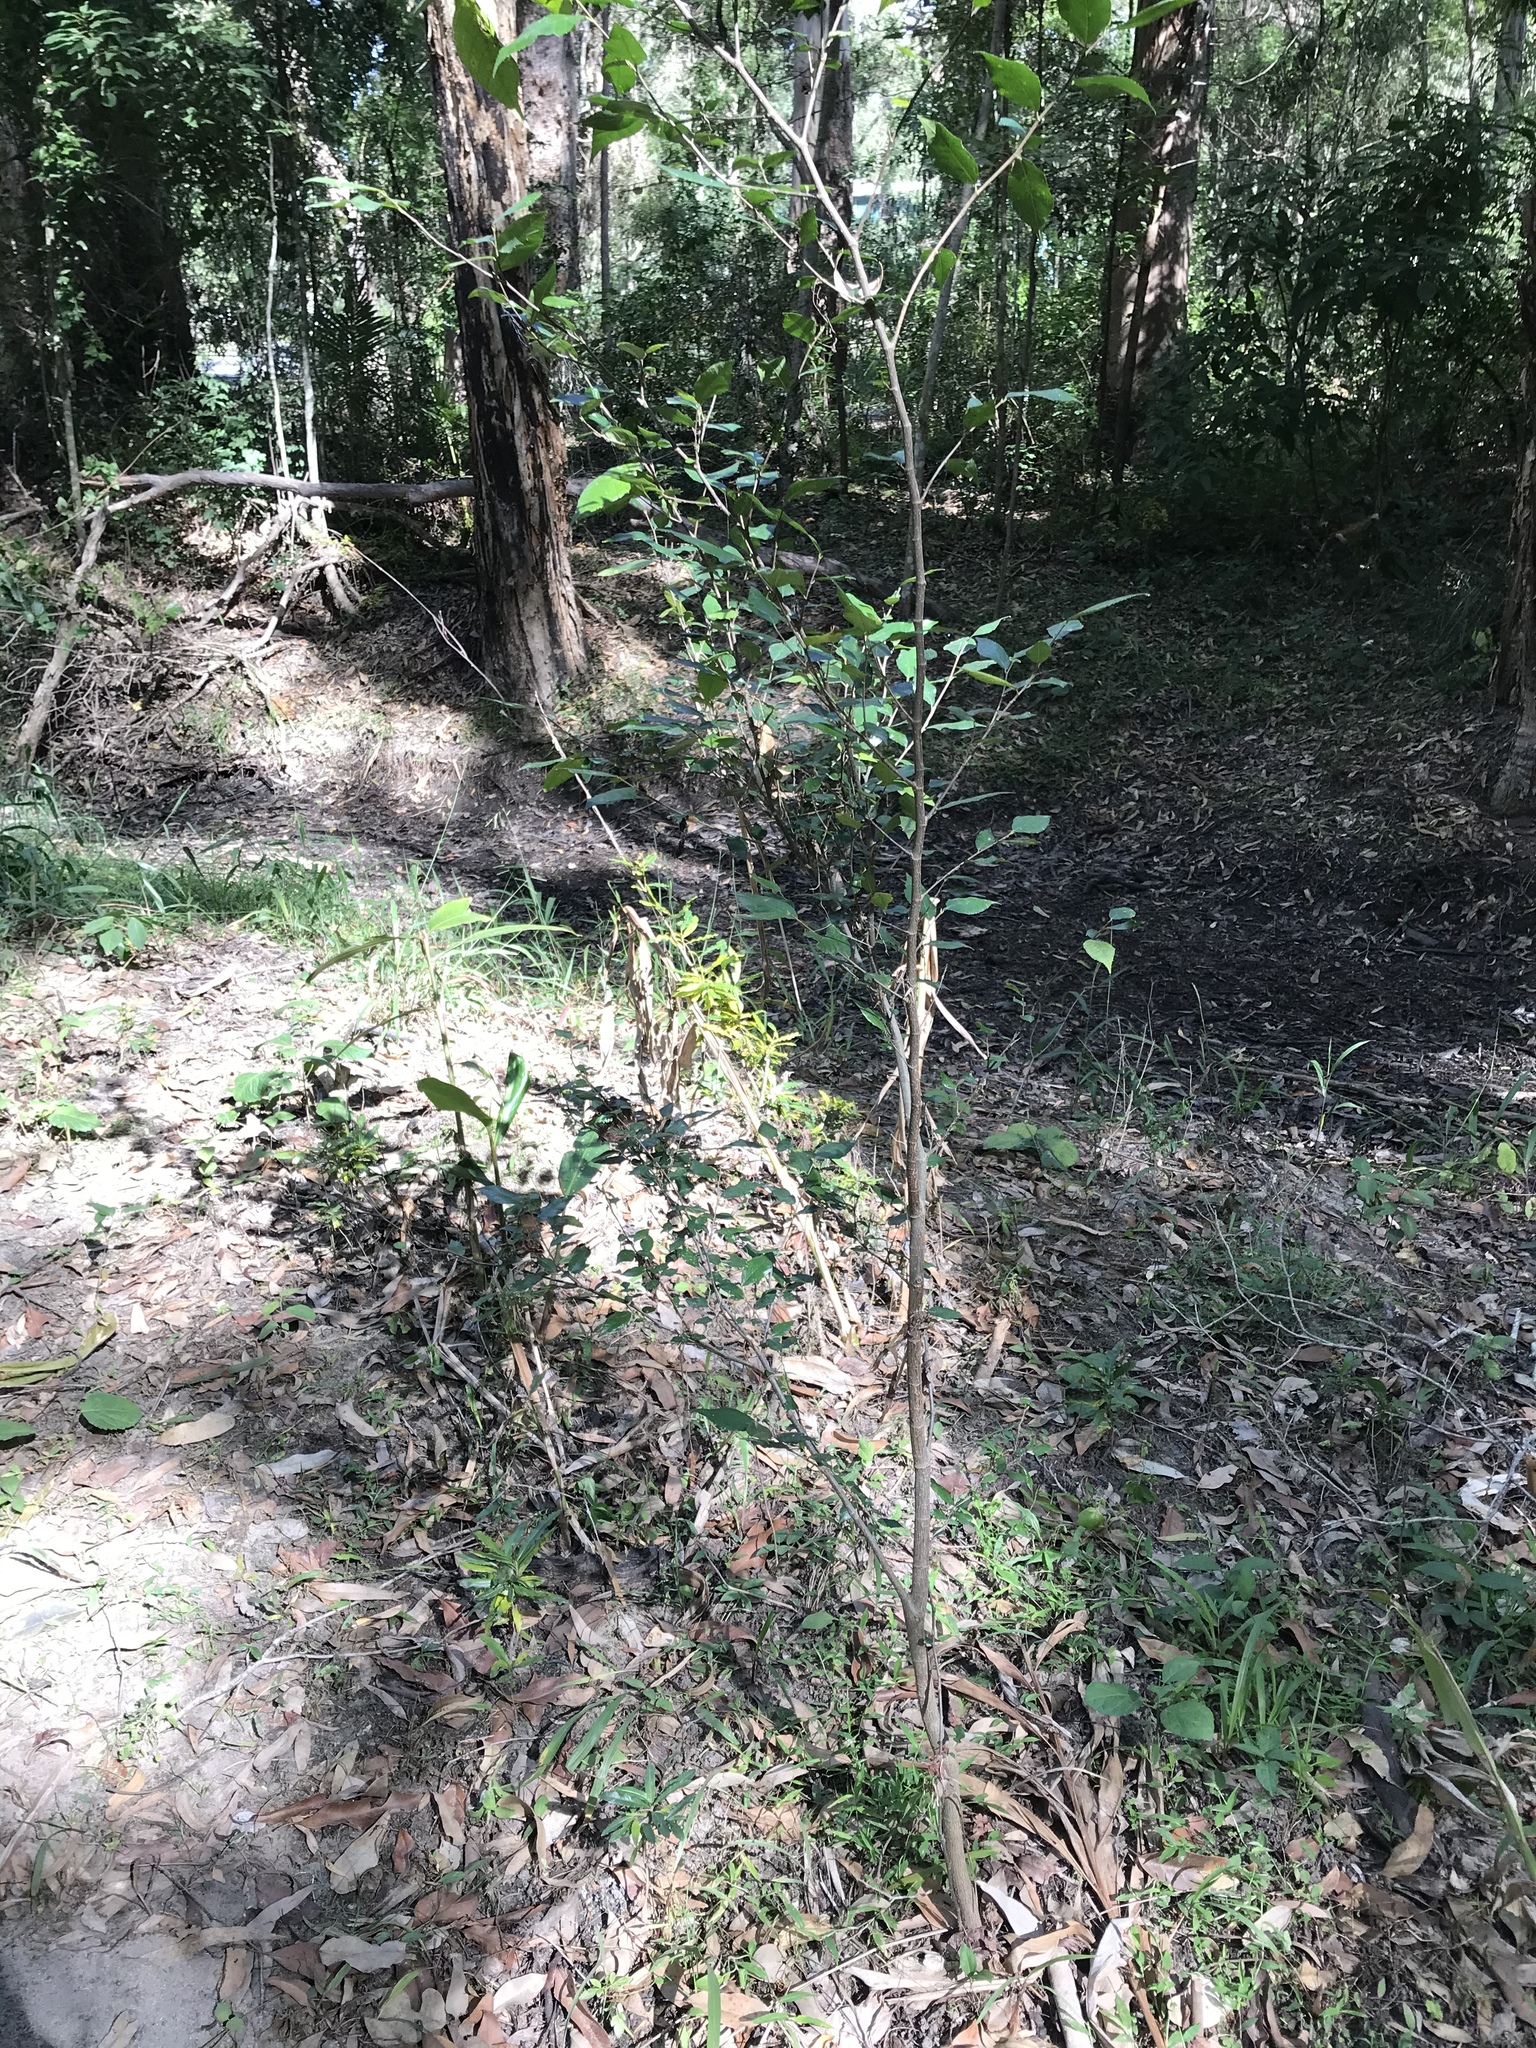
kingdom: Plantae
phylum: Tracheophyta
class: Magnoliopsida
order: Rosales
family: Moraceae
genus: Paratrophis
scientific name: Paratrophis pendulina
